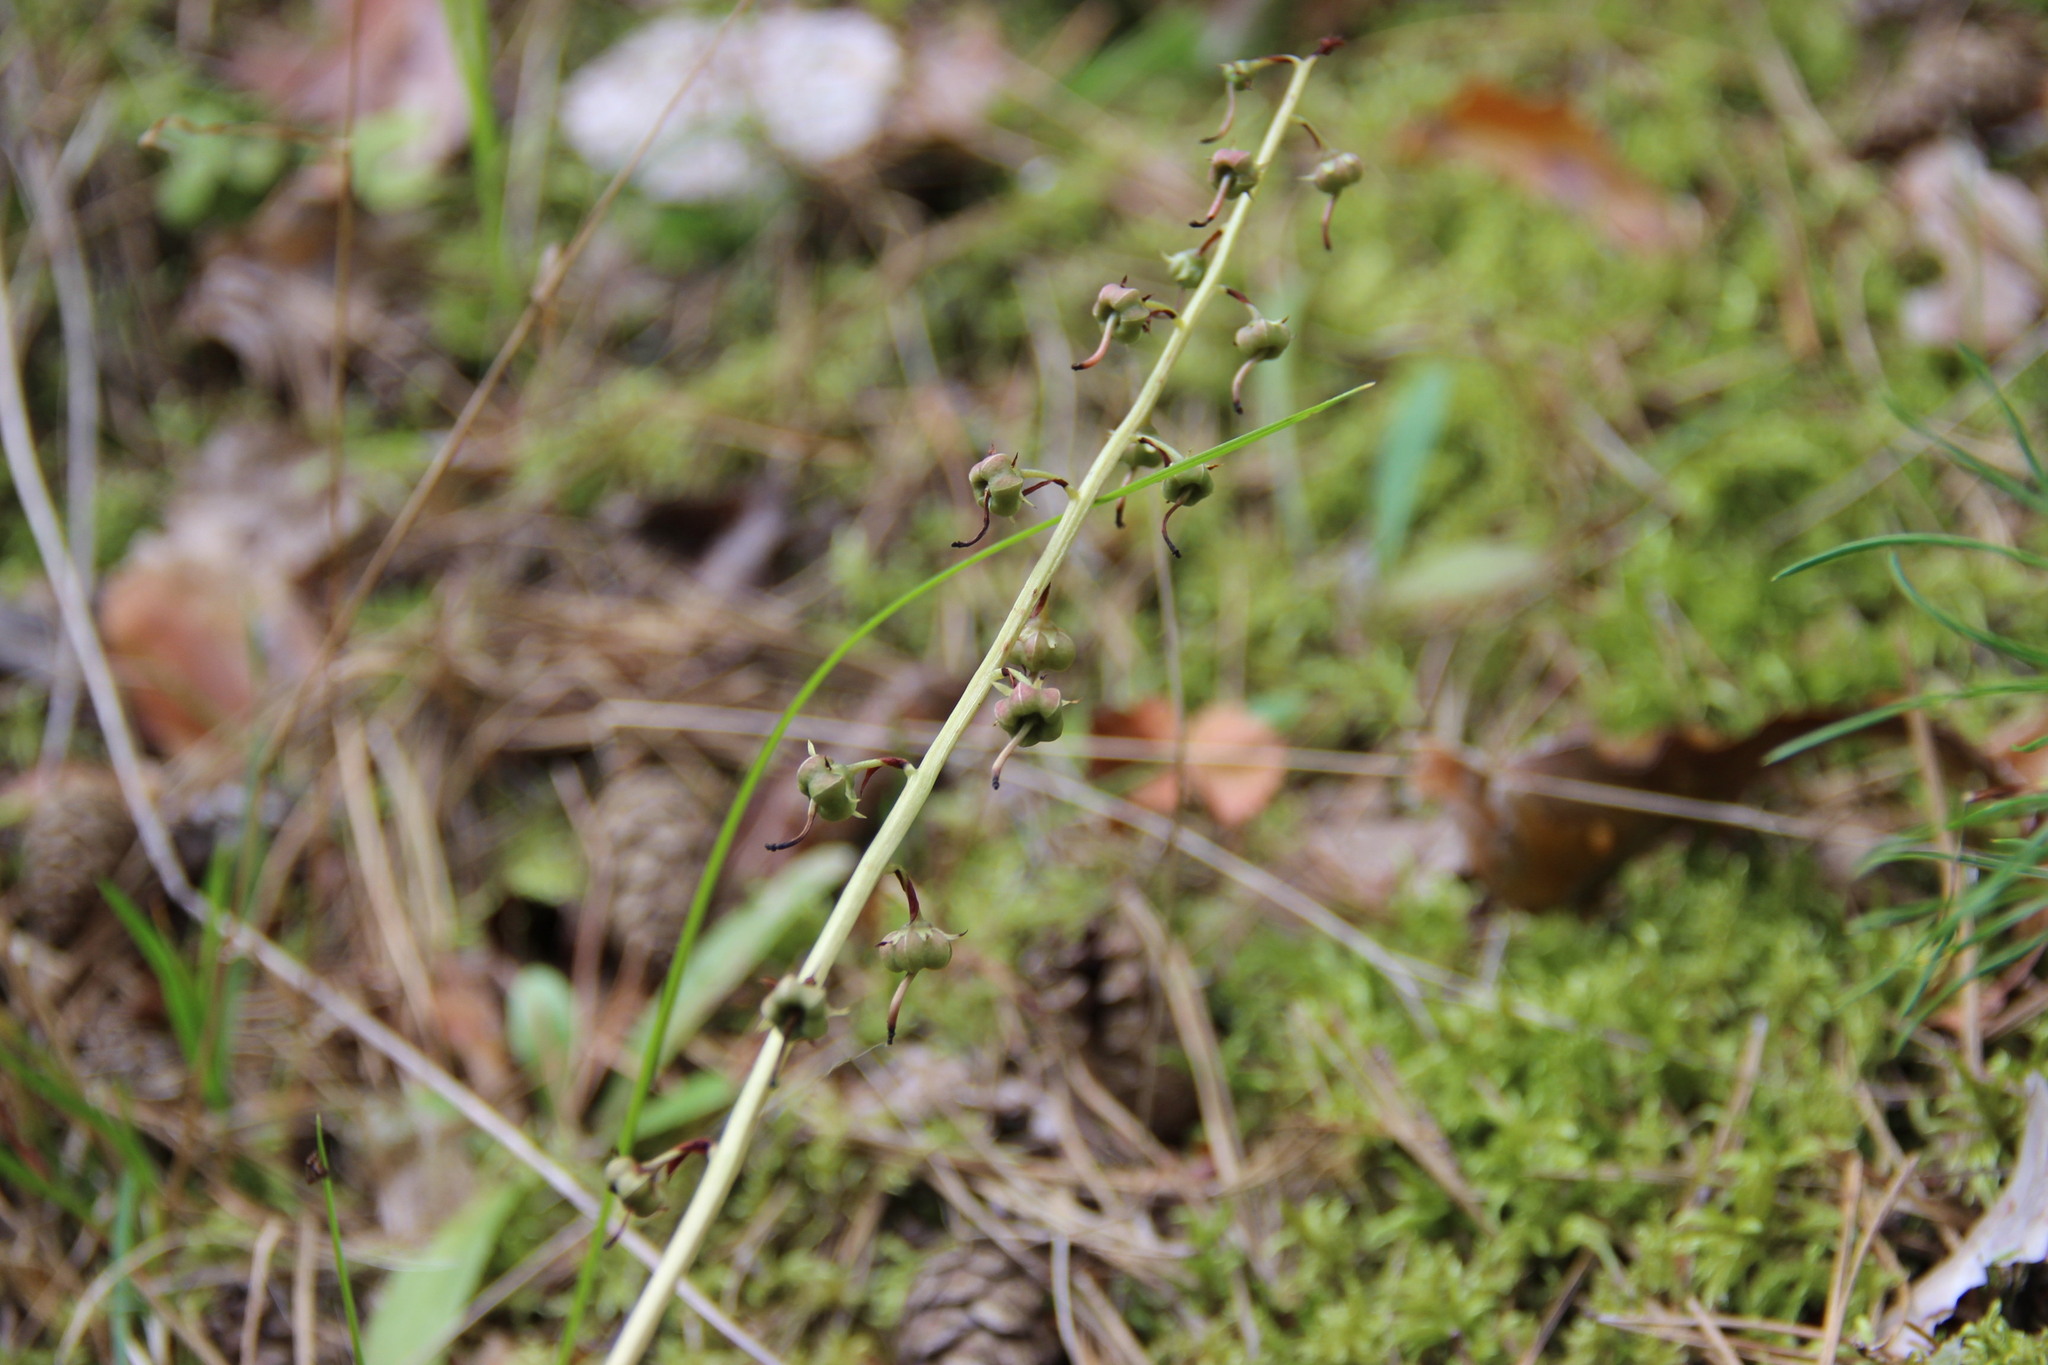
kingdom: Plantae
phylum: Tracheophyta
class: Magnoliopsida
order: Ericales
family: Ericaceae
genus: Pyrola
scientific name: Pyrola rotundifolia
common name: Round-leaved wintergreen
